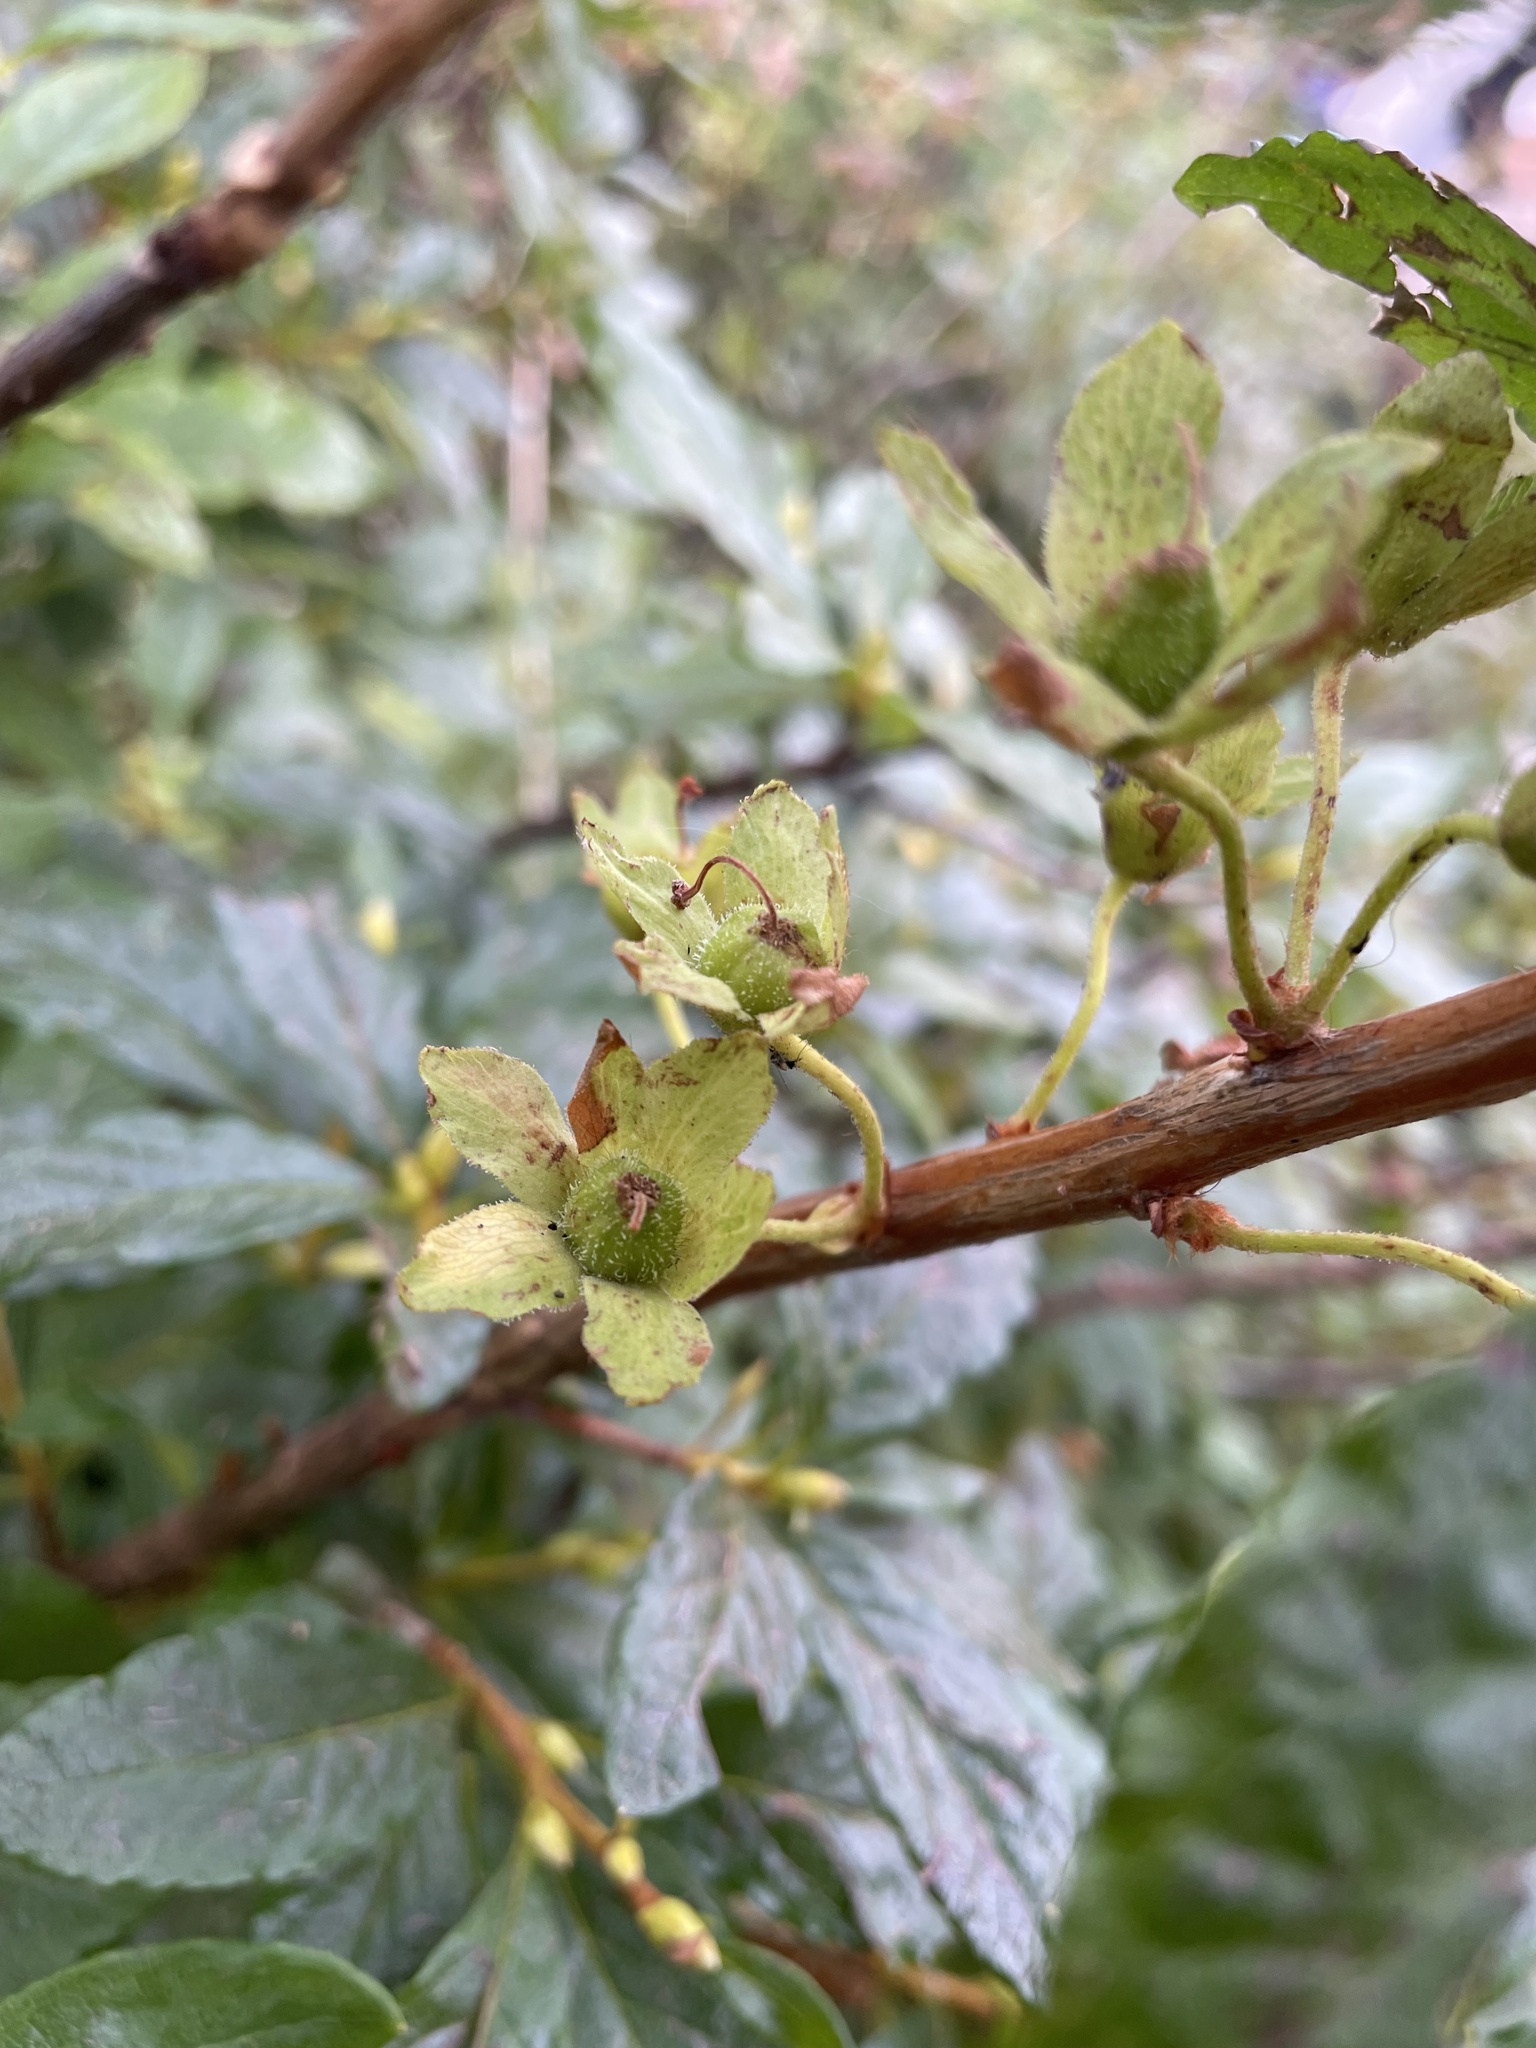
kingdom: Plantae
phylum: Tracheophyta
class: Magnoliopsida
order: Ericales
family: Ericaceae
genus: Rhododendron
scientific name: Rhododendron albiflorum
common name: White rhododendron
